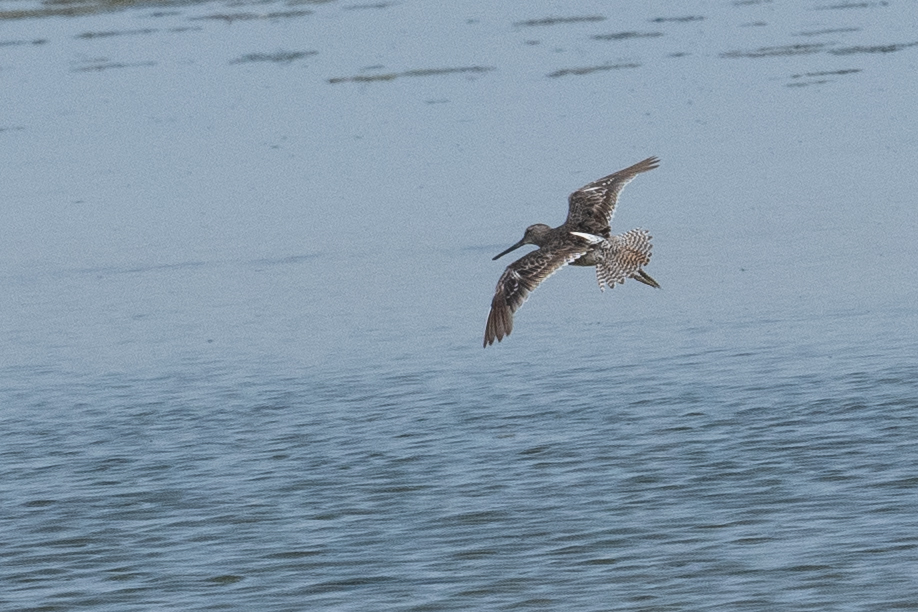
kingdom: Animalia
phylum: Chordata
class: Aves
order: Charadriiformes
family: Scolopacidae
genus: Limnodromus
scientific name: Limnodromus scolopaceus
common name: Long-billed dowitcher
